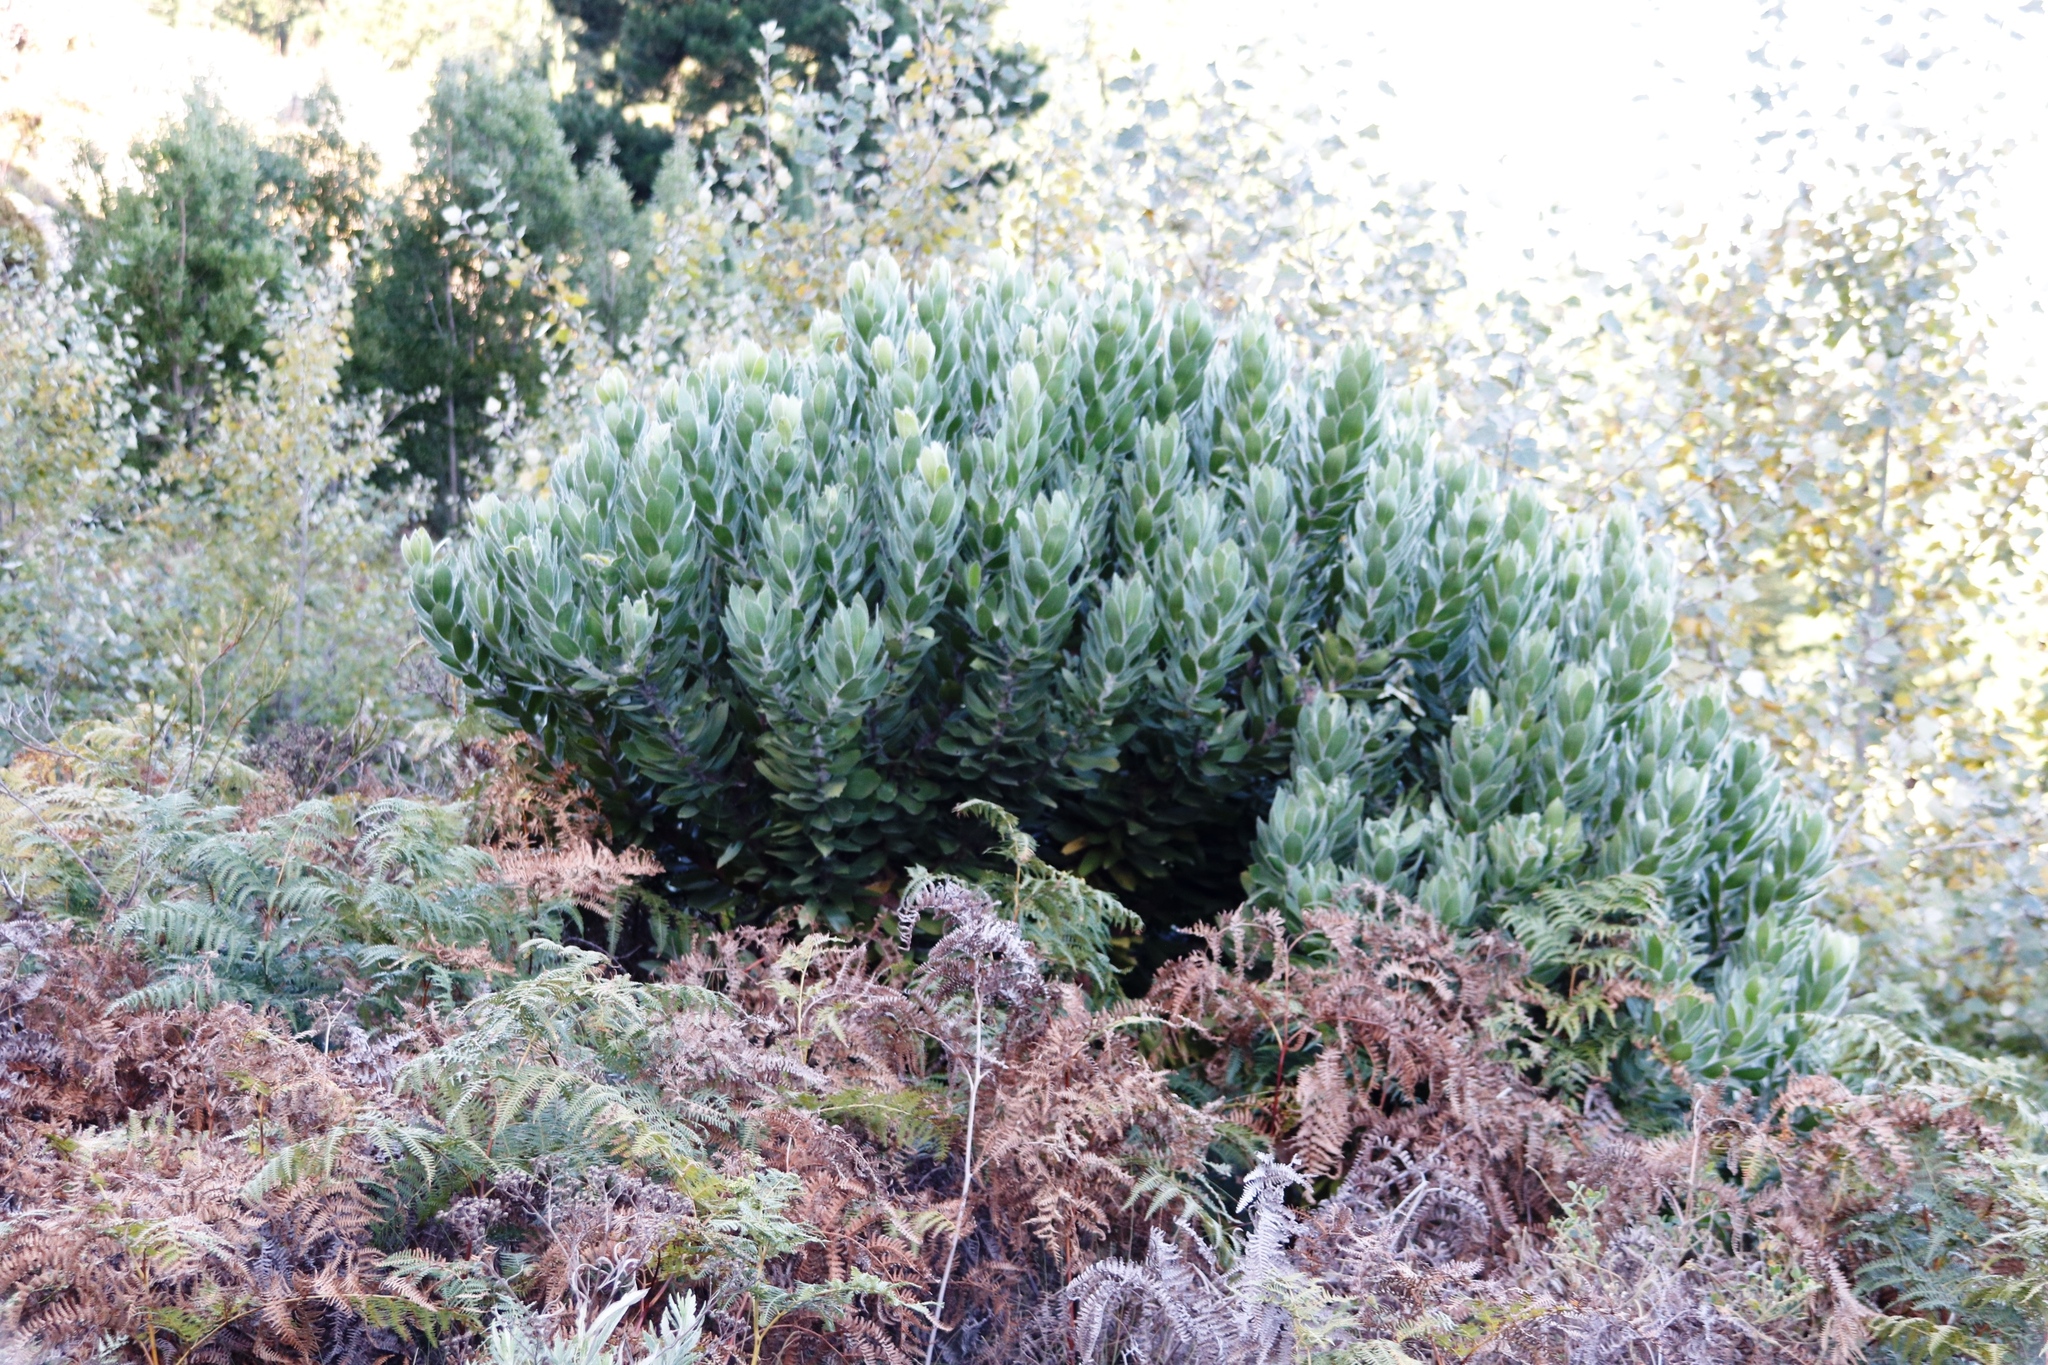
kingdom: Plantae
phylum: Tracheophyta
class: Magnoliopsida
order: Proteales
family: Proteaceae
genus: Leucospermum
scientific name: Leucospermum conocarpodendron
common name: Tree pincushion
